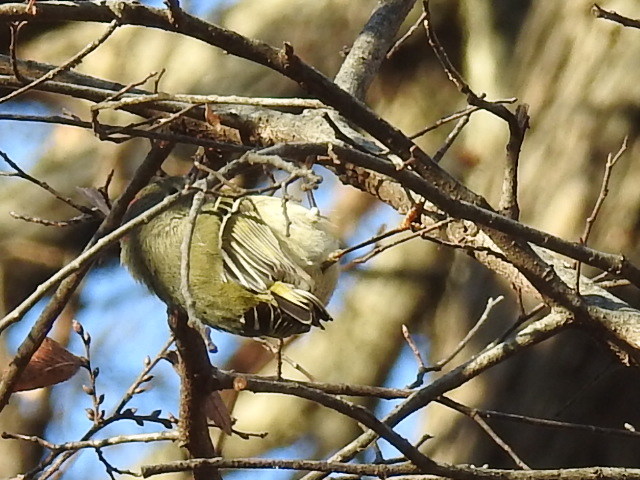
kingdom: Animalia
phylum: Chordata
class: Aves
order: Passeriformes
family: Regulidae
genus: Regulus
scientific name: Regulus calendula
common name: Ruby-crowned kinglet
